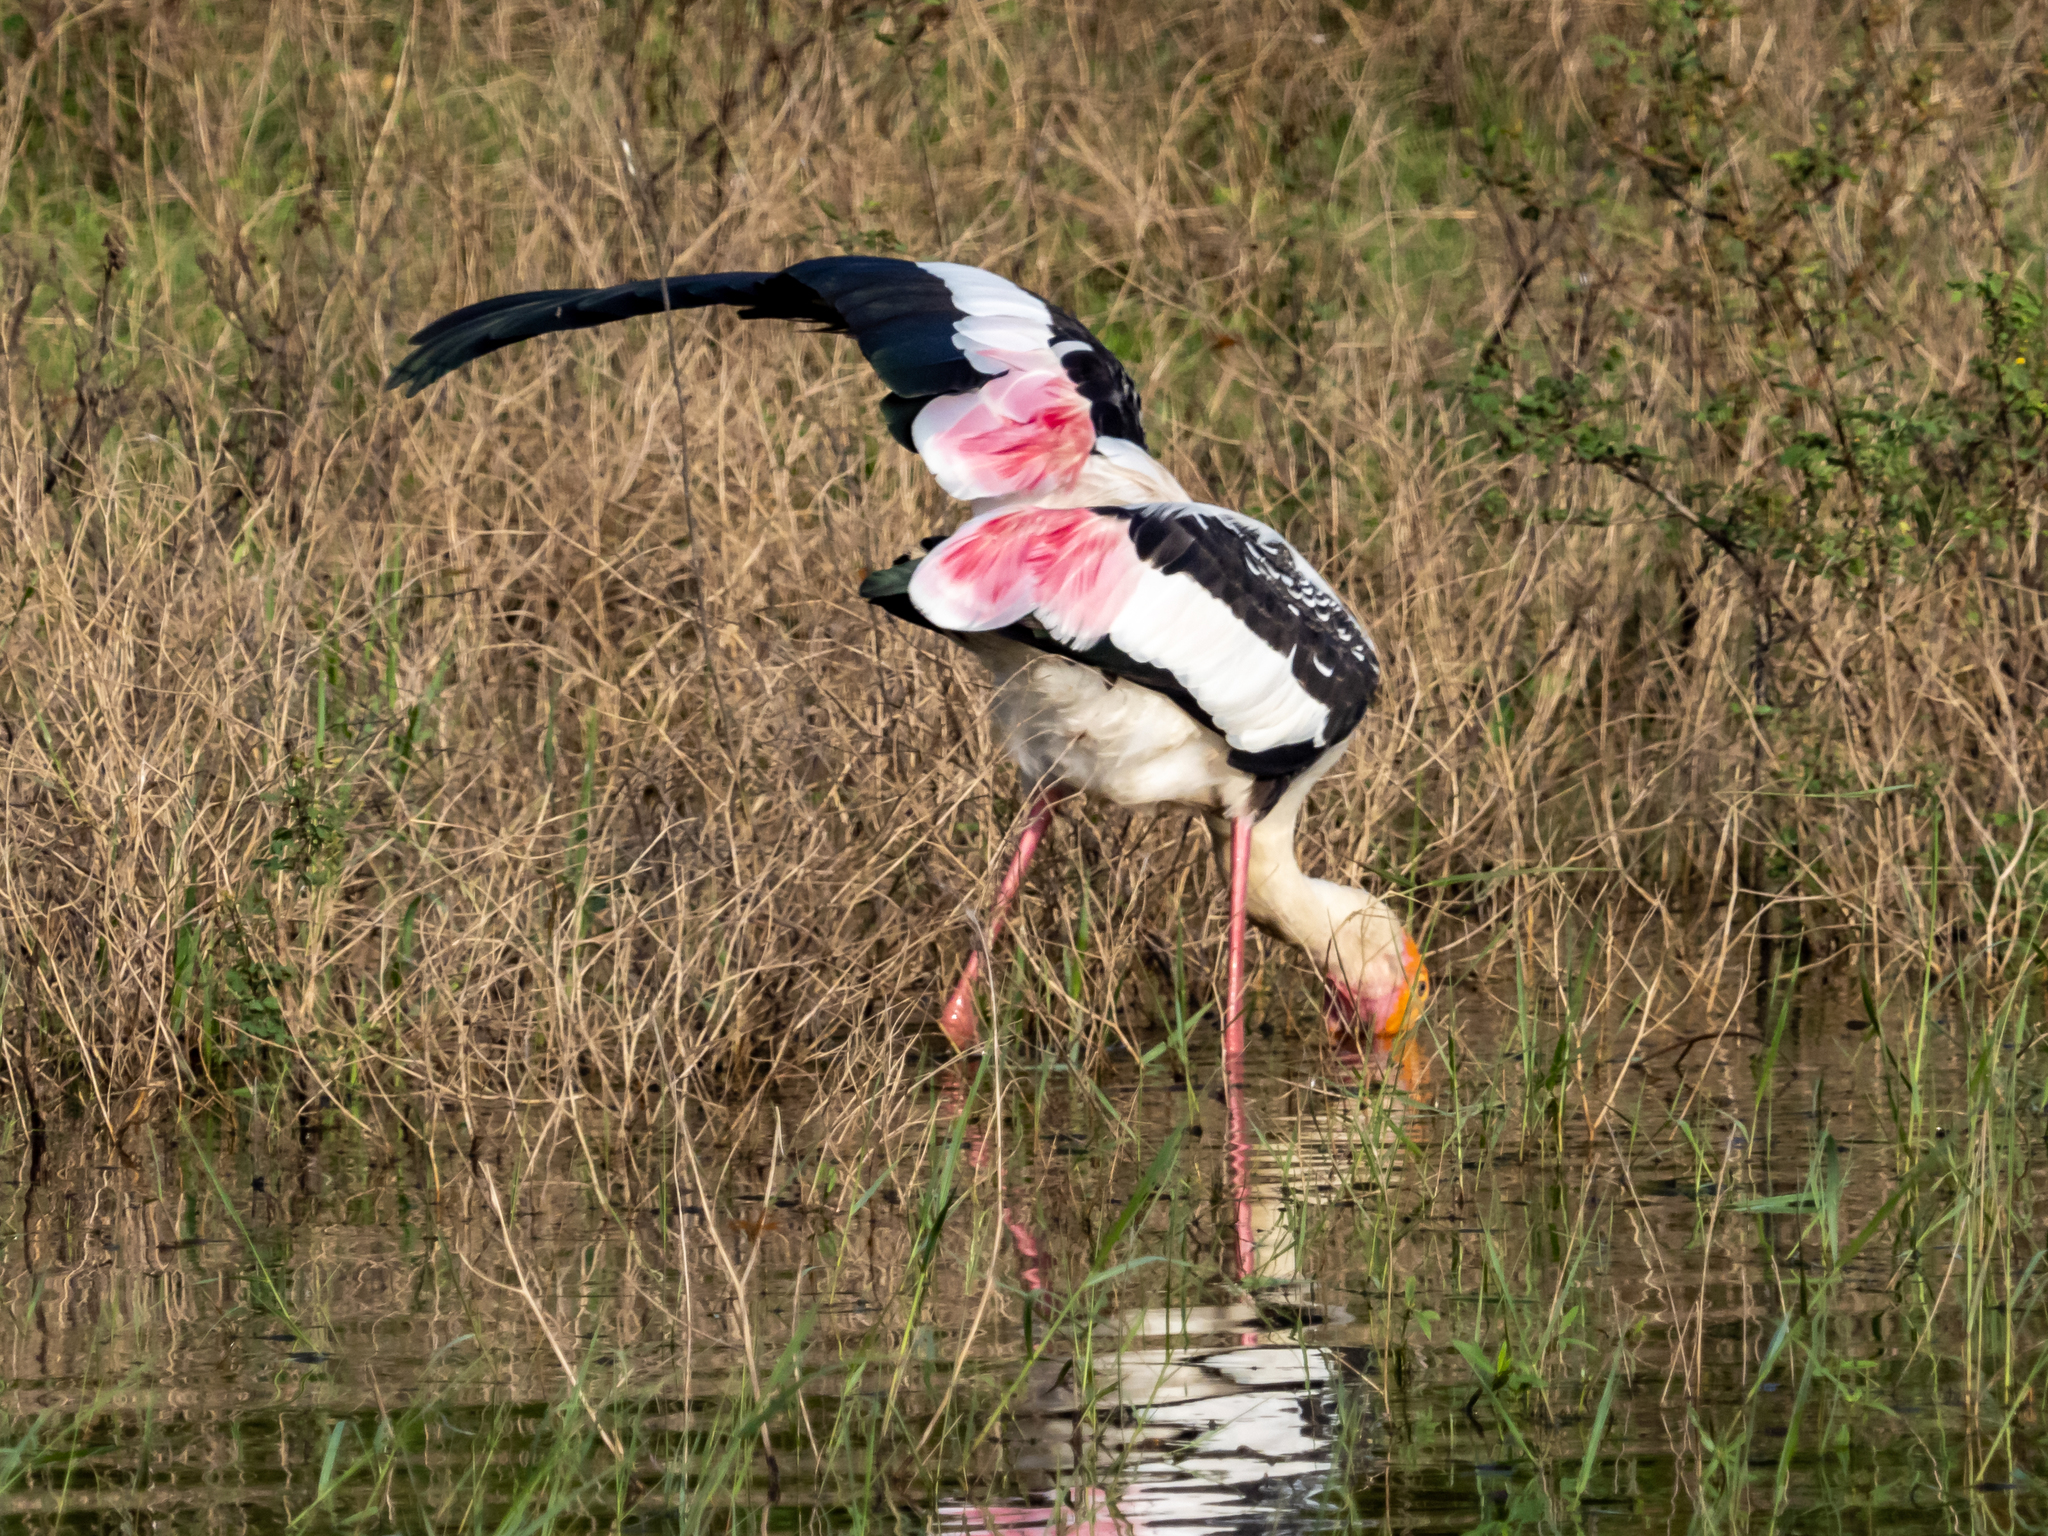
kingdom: Animalia
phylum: Chordata
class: Aves
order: Ciconiiformes
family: Ciconiidae
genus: Mycteria
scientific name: Mycteria leucocephala
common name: Painted stork
